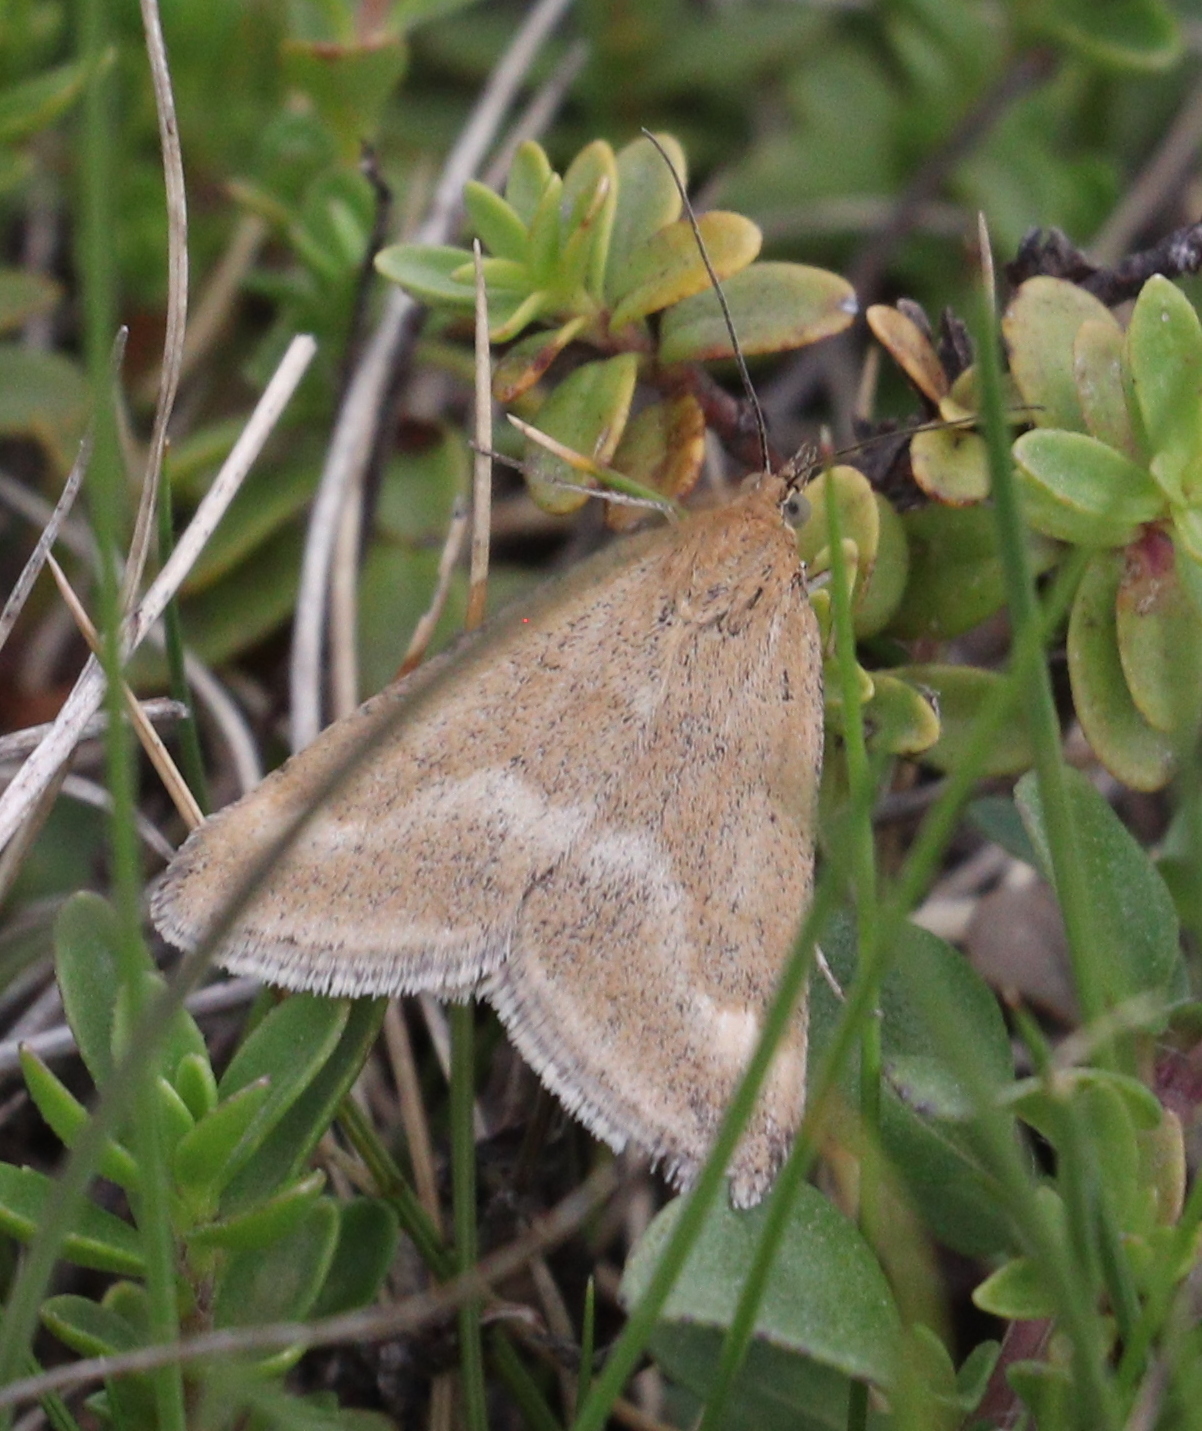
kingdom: Animalia
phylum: Arthropoda
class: Insecta
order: Lepidoptera
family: Crambidae
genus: Pyrausta
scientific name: Pyrausta aerealis
